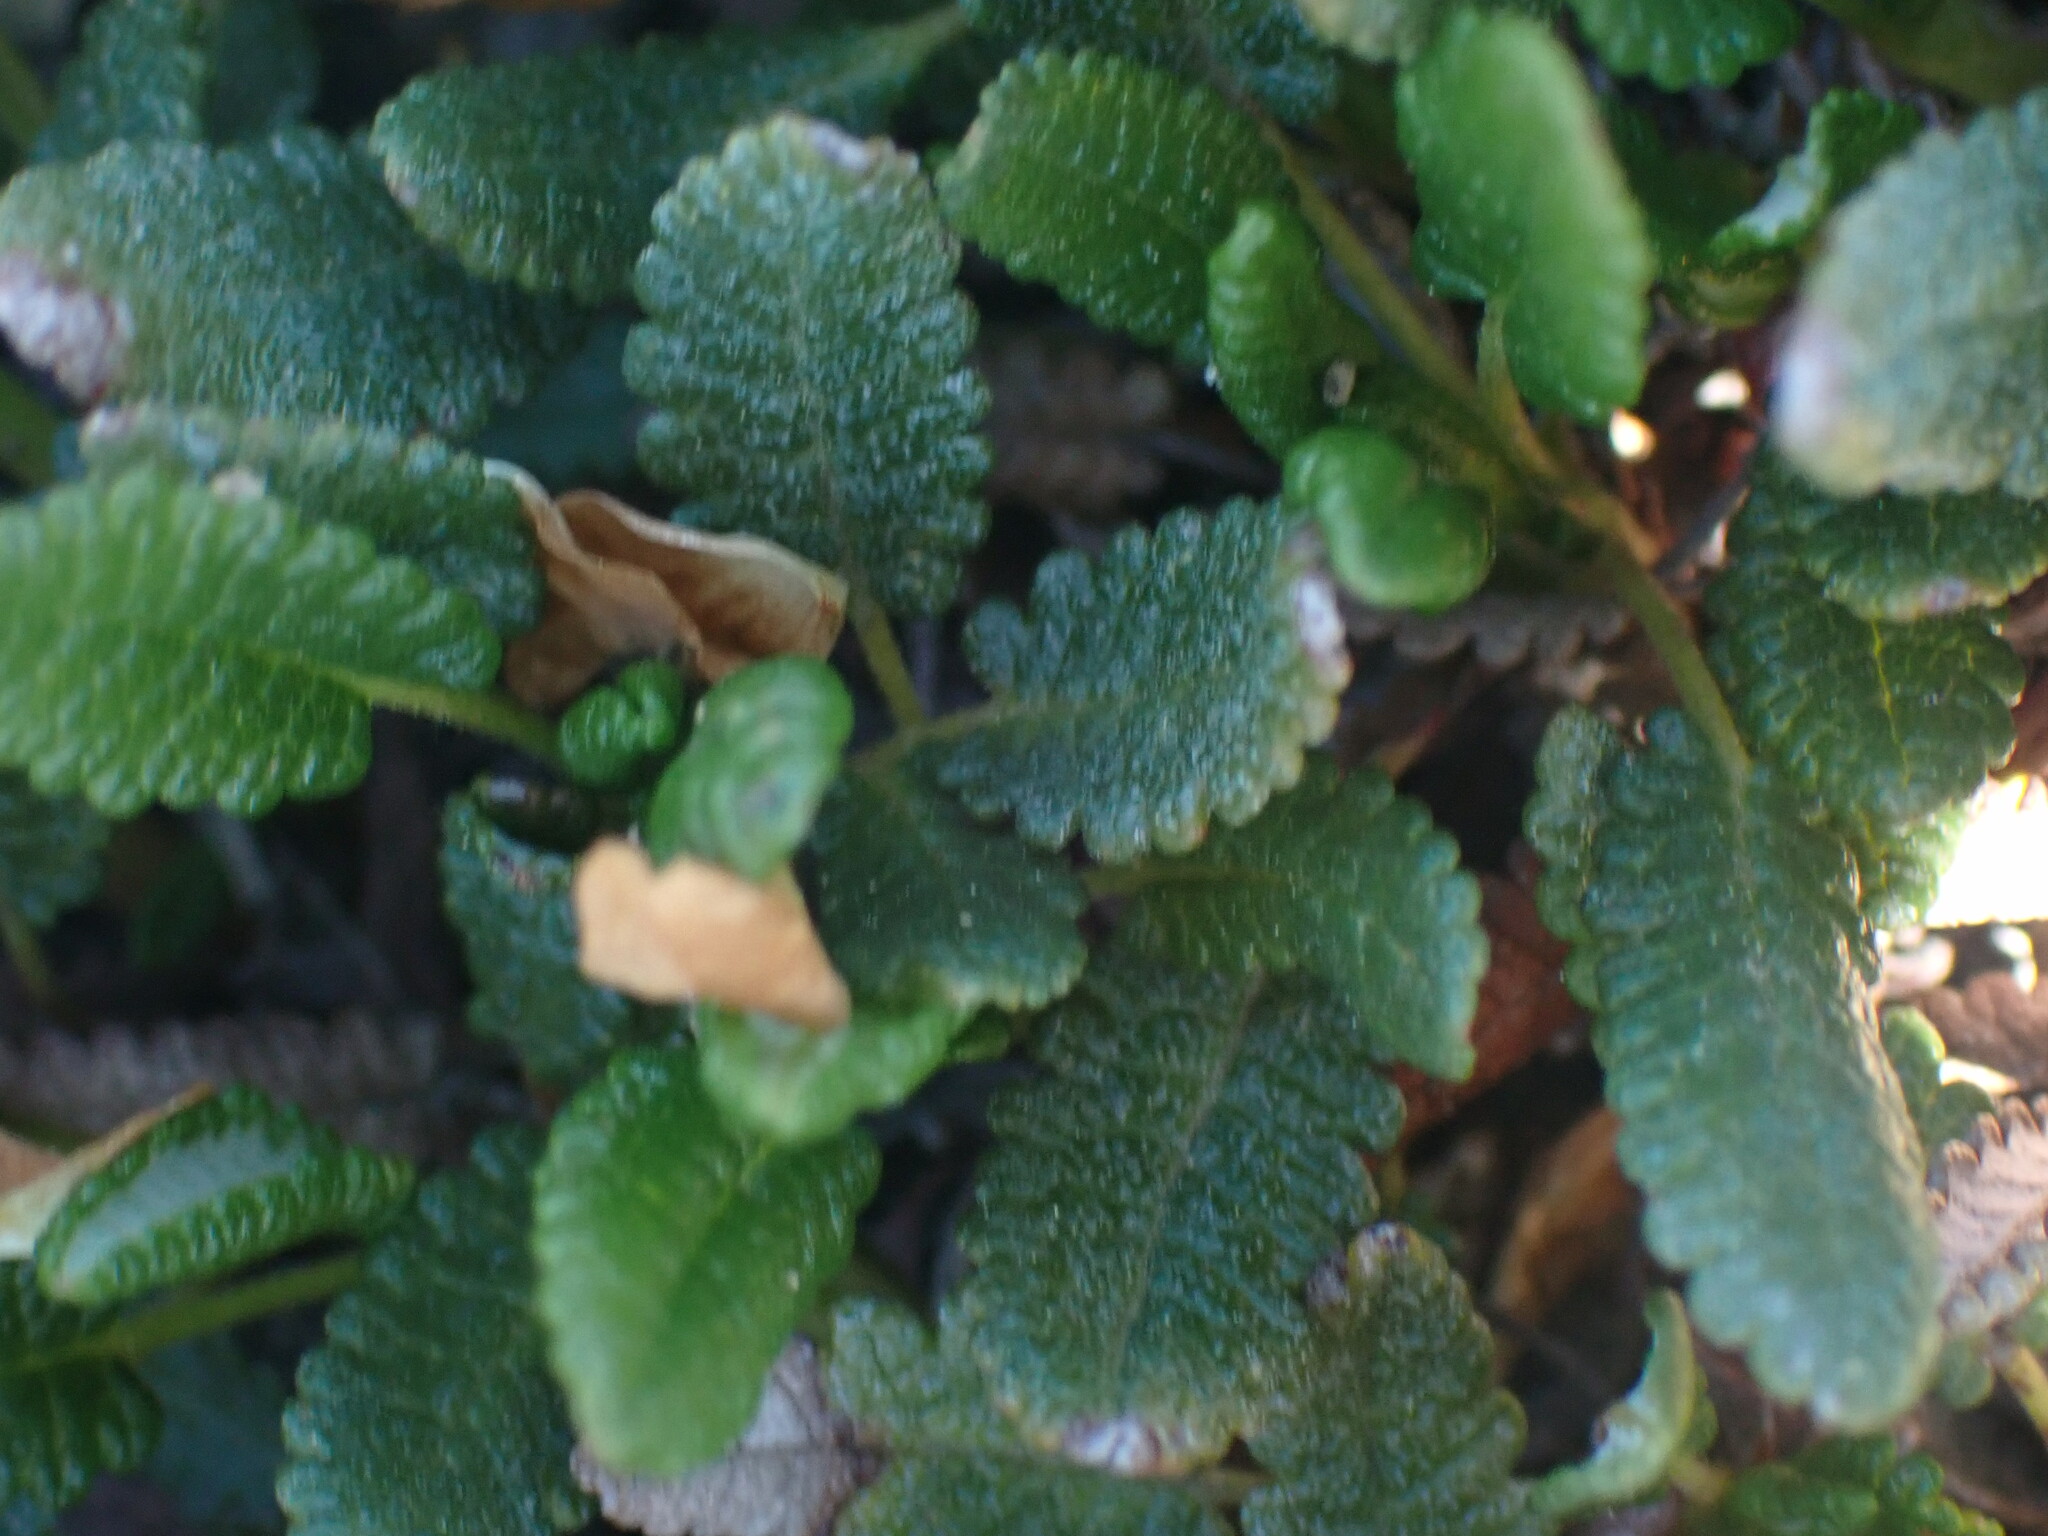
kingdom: Plantae
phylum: Tracheophyta
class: Magnoliopsida
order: Rosales
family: Rosaceae
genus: Dryas
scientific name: Dryas octopetala
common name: Eight-petal mountain-avens
